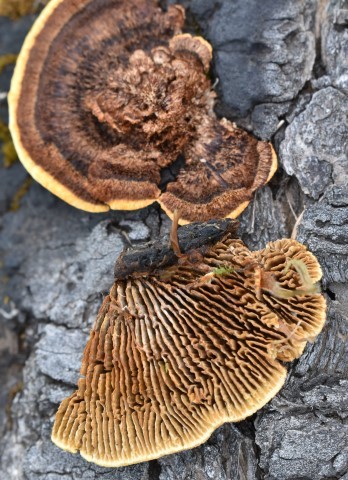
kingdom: Fungi
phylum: Basidiomycota
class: Agaricomycetes
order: Gloeophyllales
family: Gloeophyllaceae
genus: Gloeophyllum
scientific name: Gloeophyllum sepiarium
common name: Conifer mazegill
